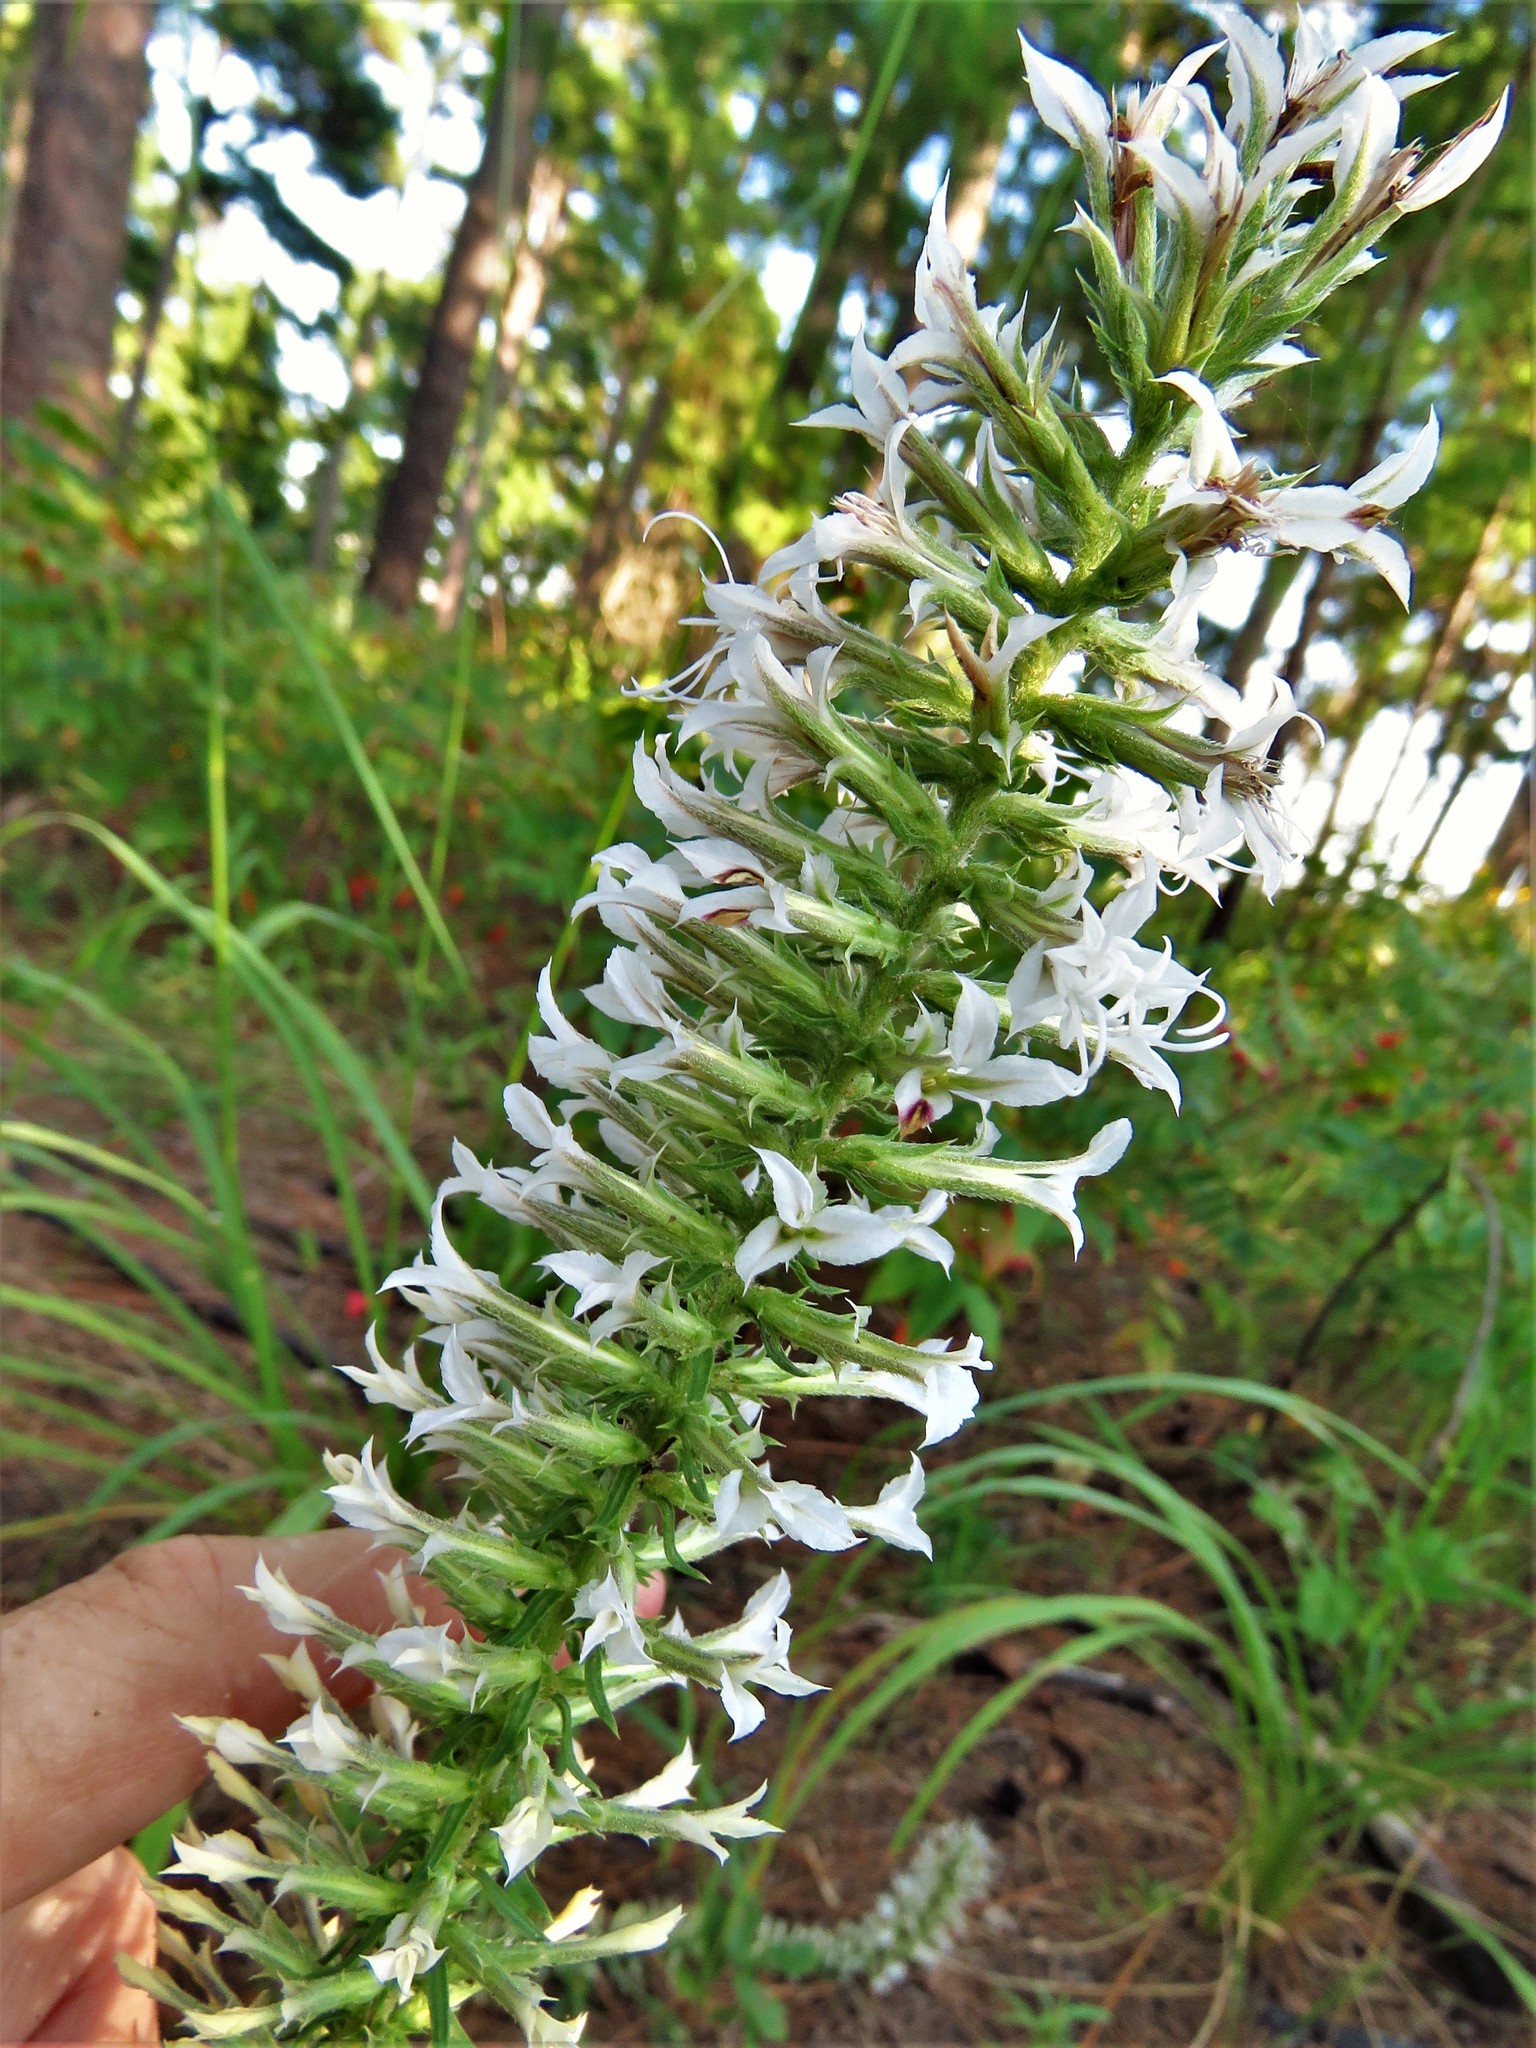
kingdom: Plantae
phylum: Tracheophyta
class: Magnoliopsida
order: Asterales
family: Asteraceae
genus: Liatris
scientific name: Liatris hesperelegans
